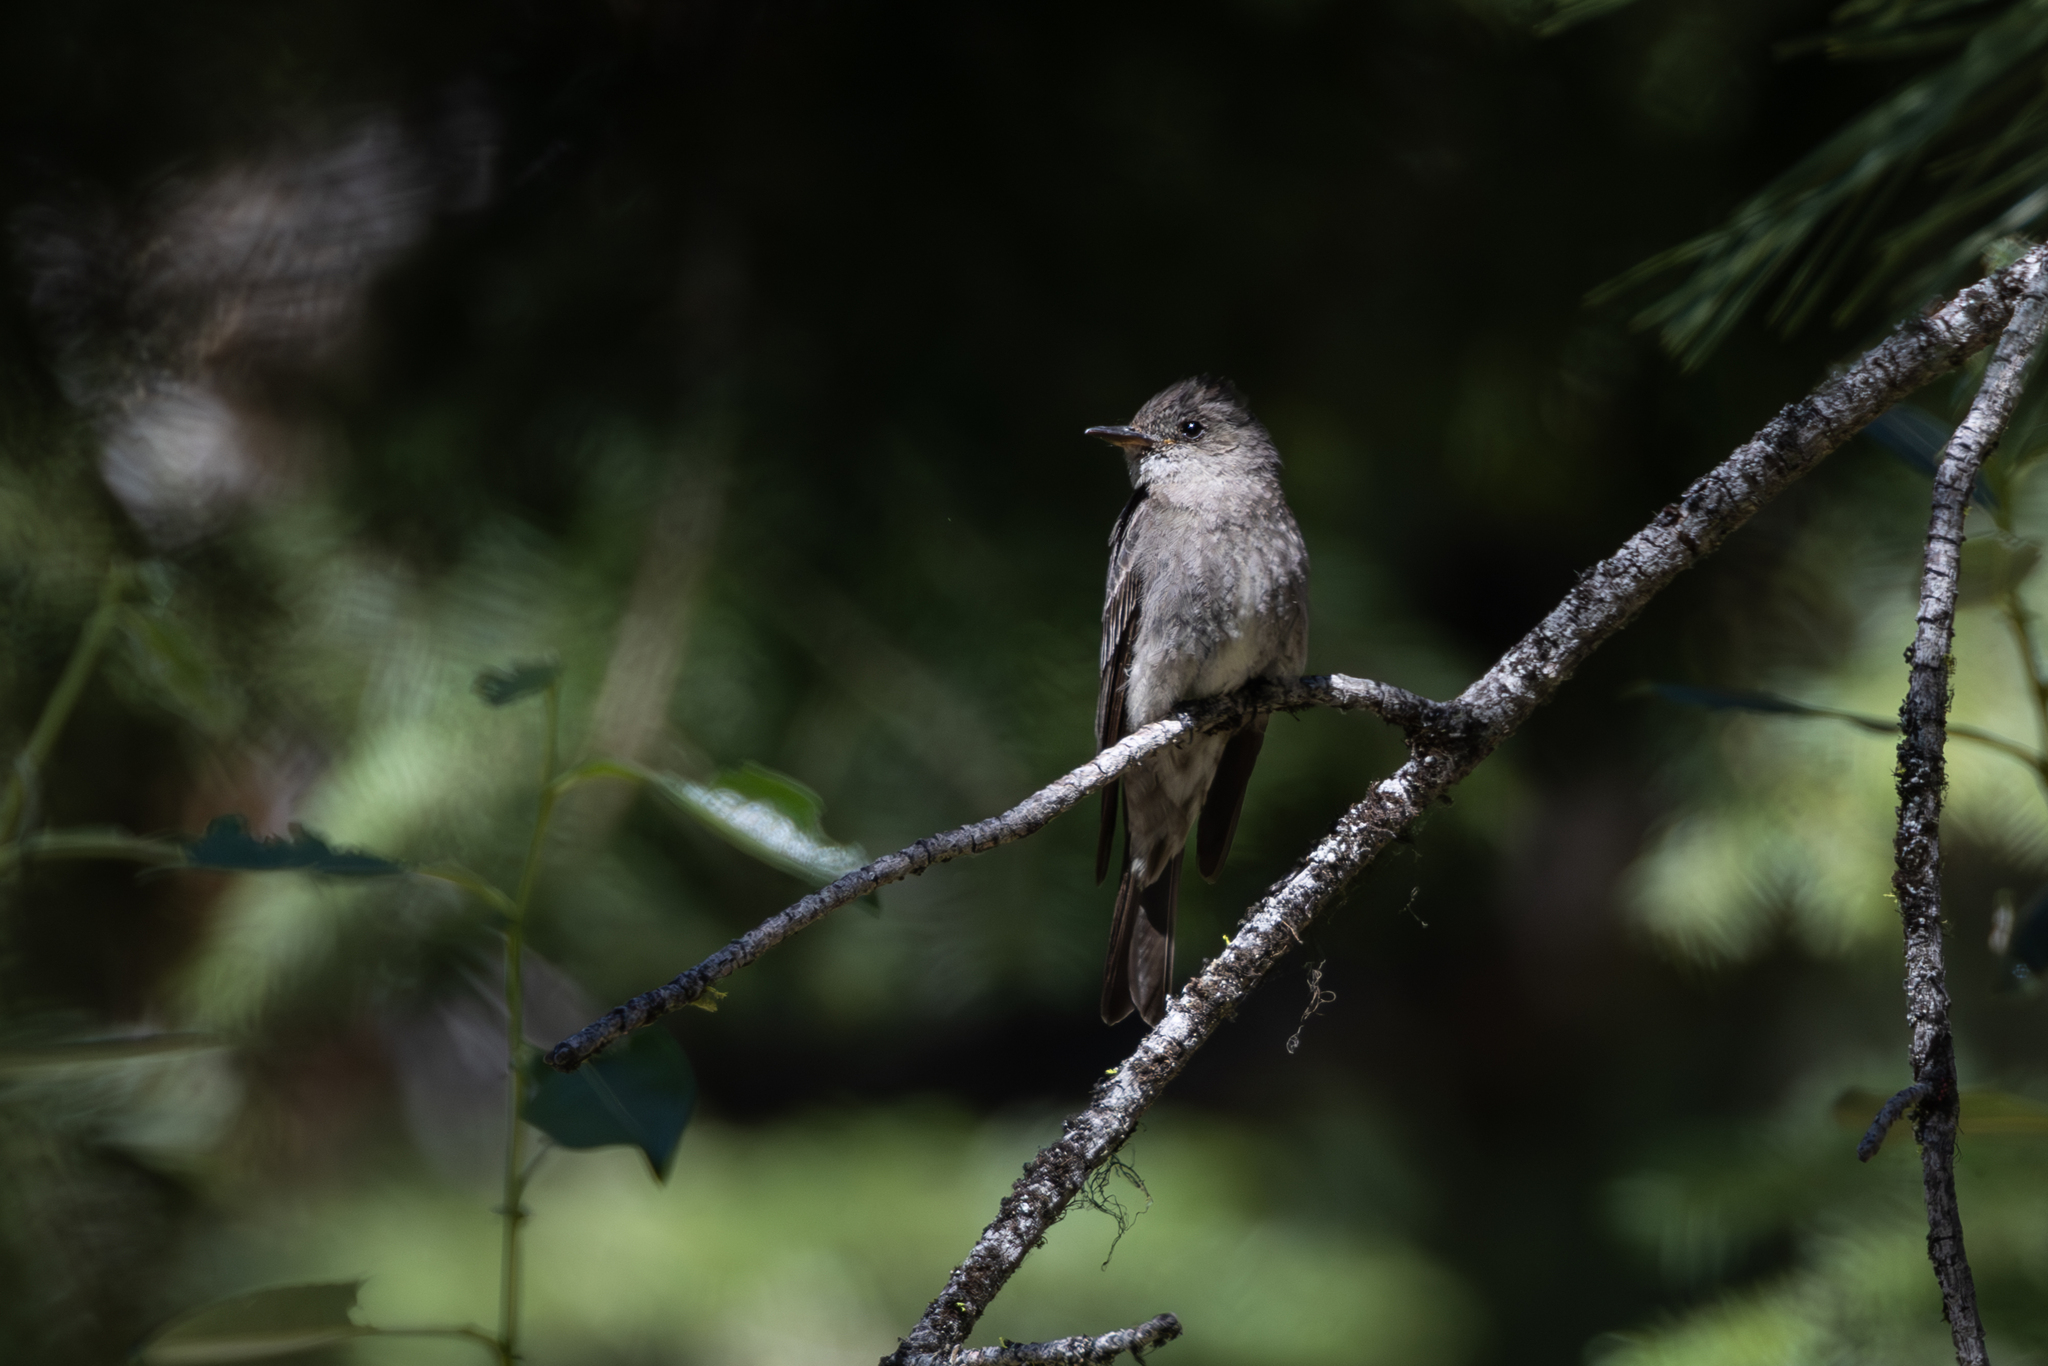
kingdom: Animalia
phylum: Chordata
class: Aves
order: Passeriformes
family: Tyrannidae
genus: Contopus
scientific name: Contopus sordidulus
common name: Western wood-pewee
